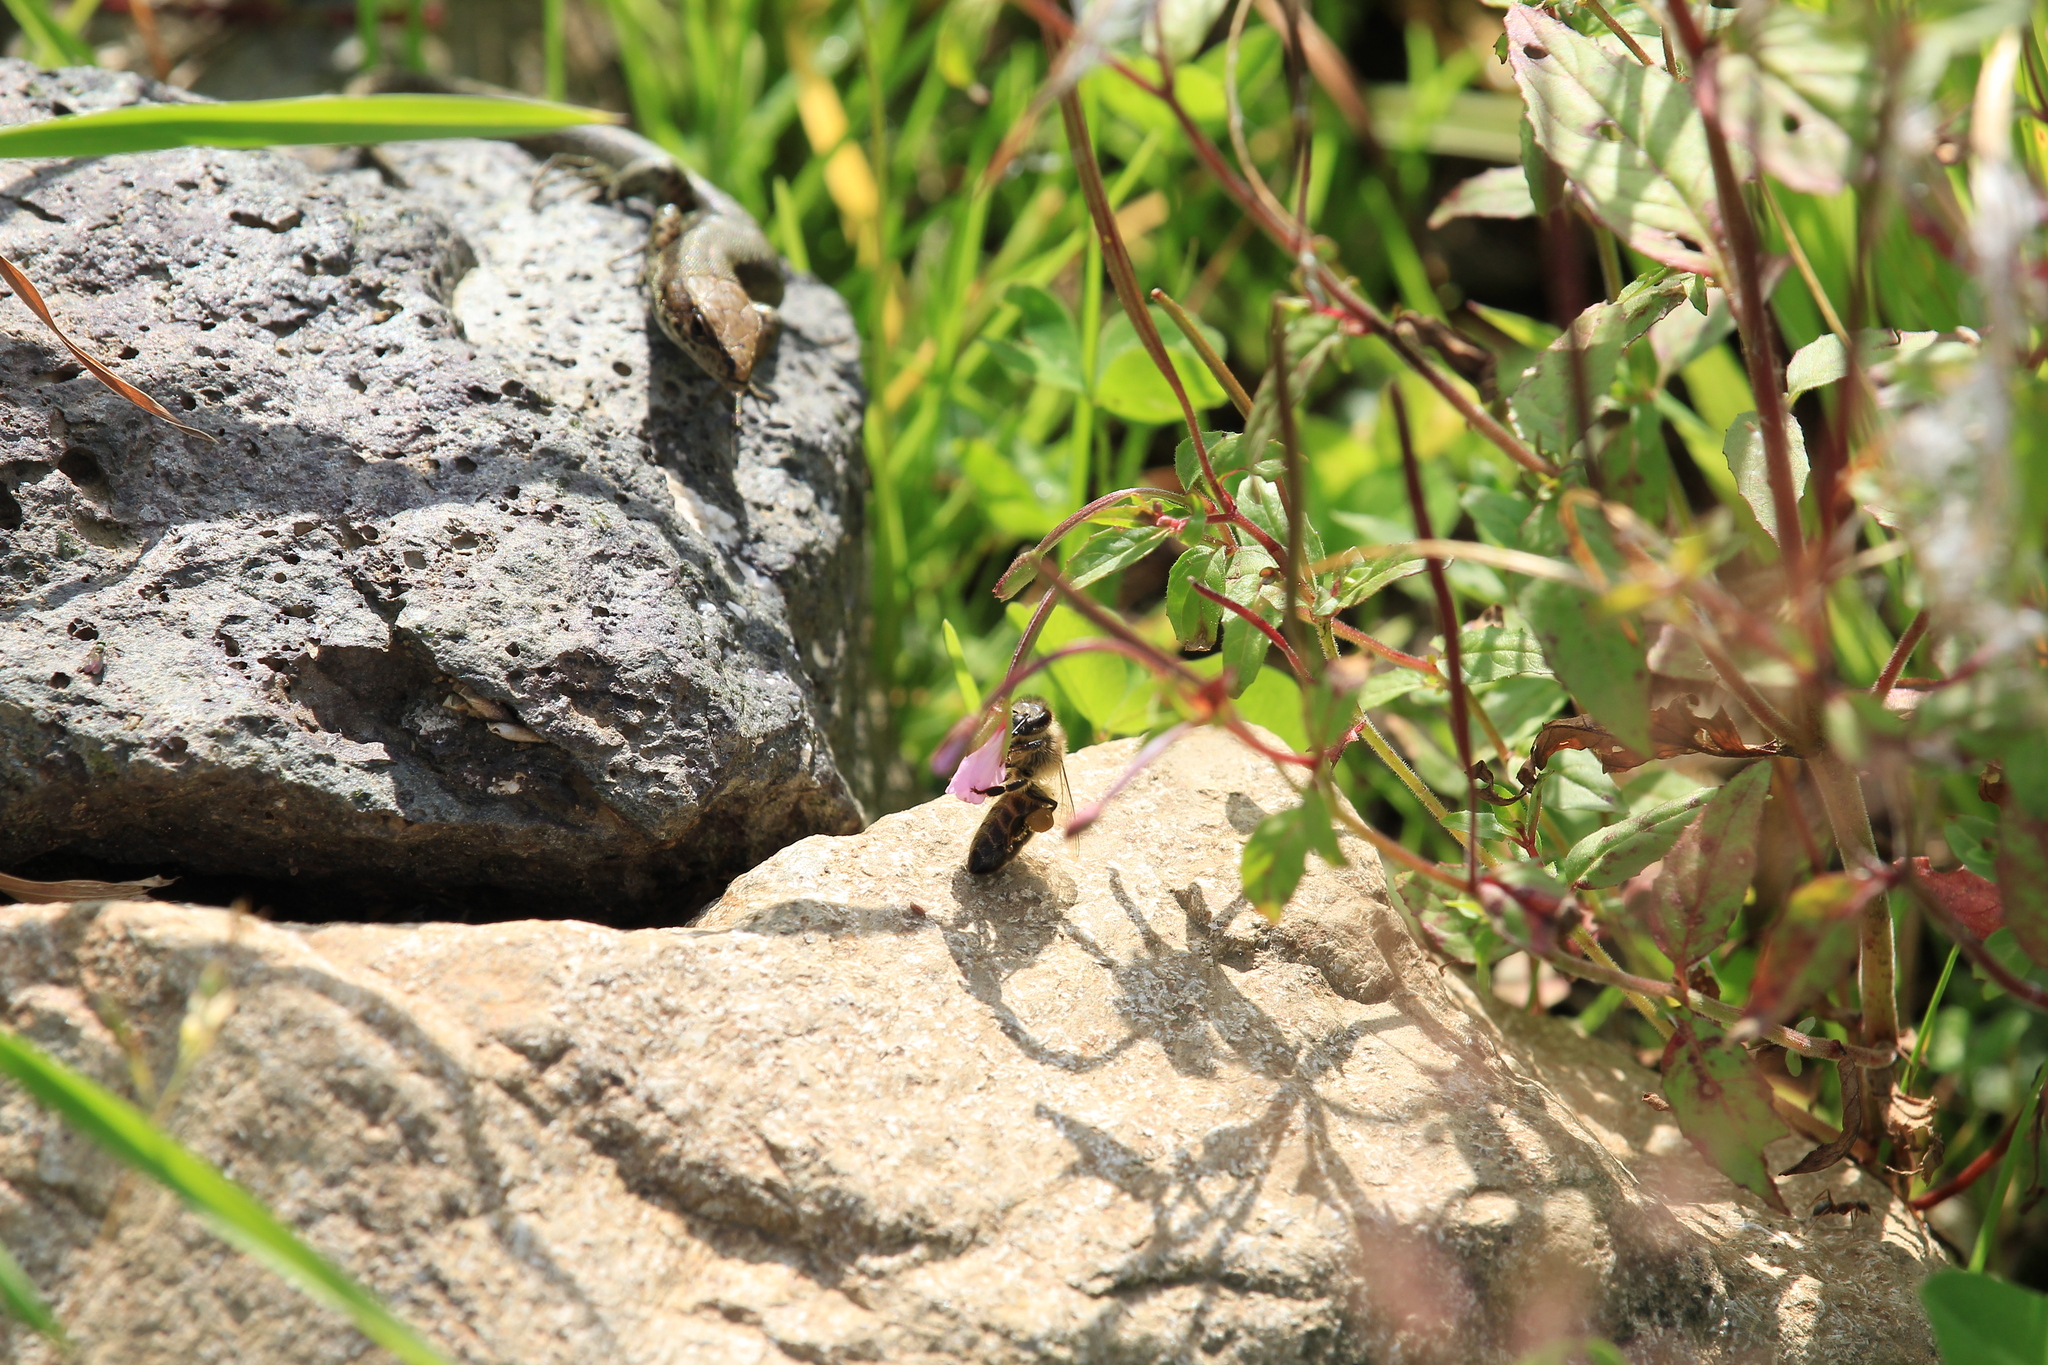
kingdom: Animalia
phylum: Arthropoda
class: Insecta
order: Hymenoptera
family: Apidae
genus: Apis
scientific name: Apis mellifera
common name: Honey bee
